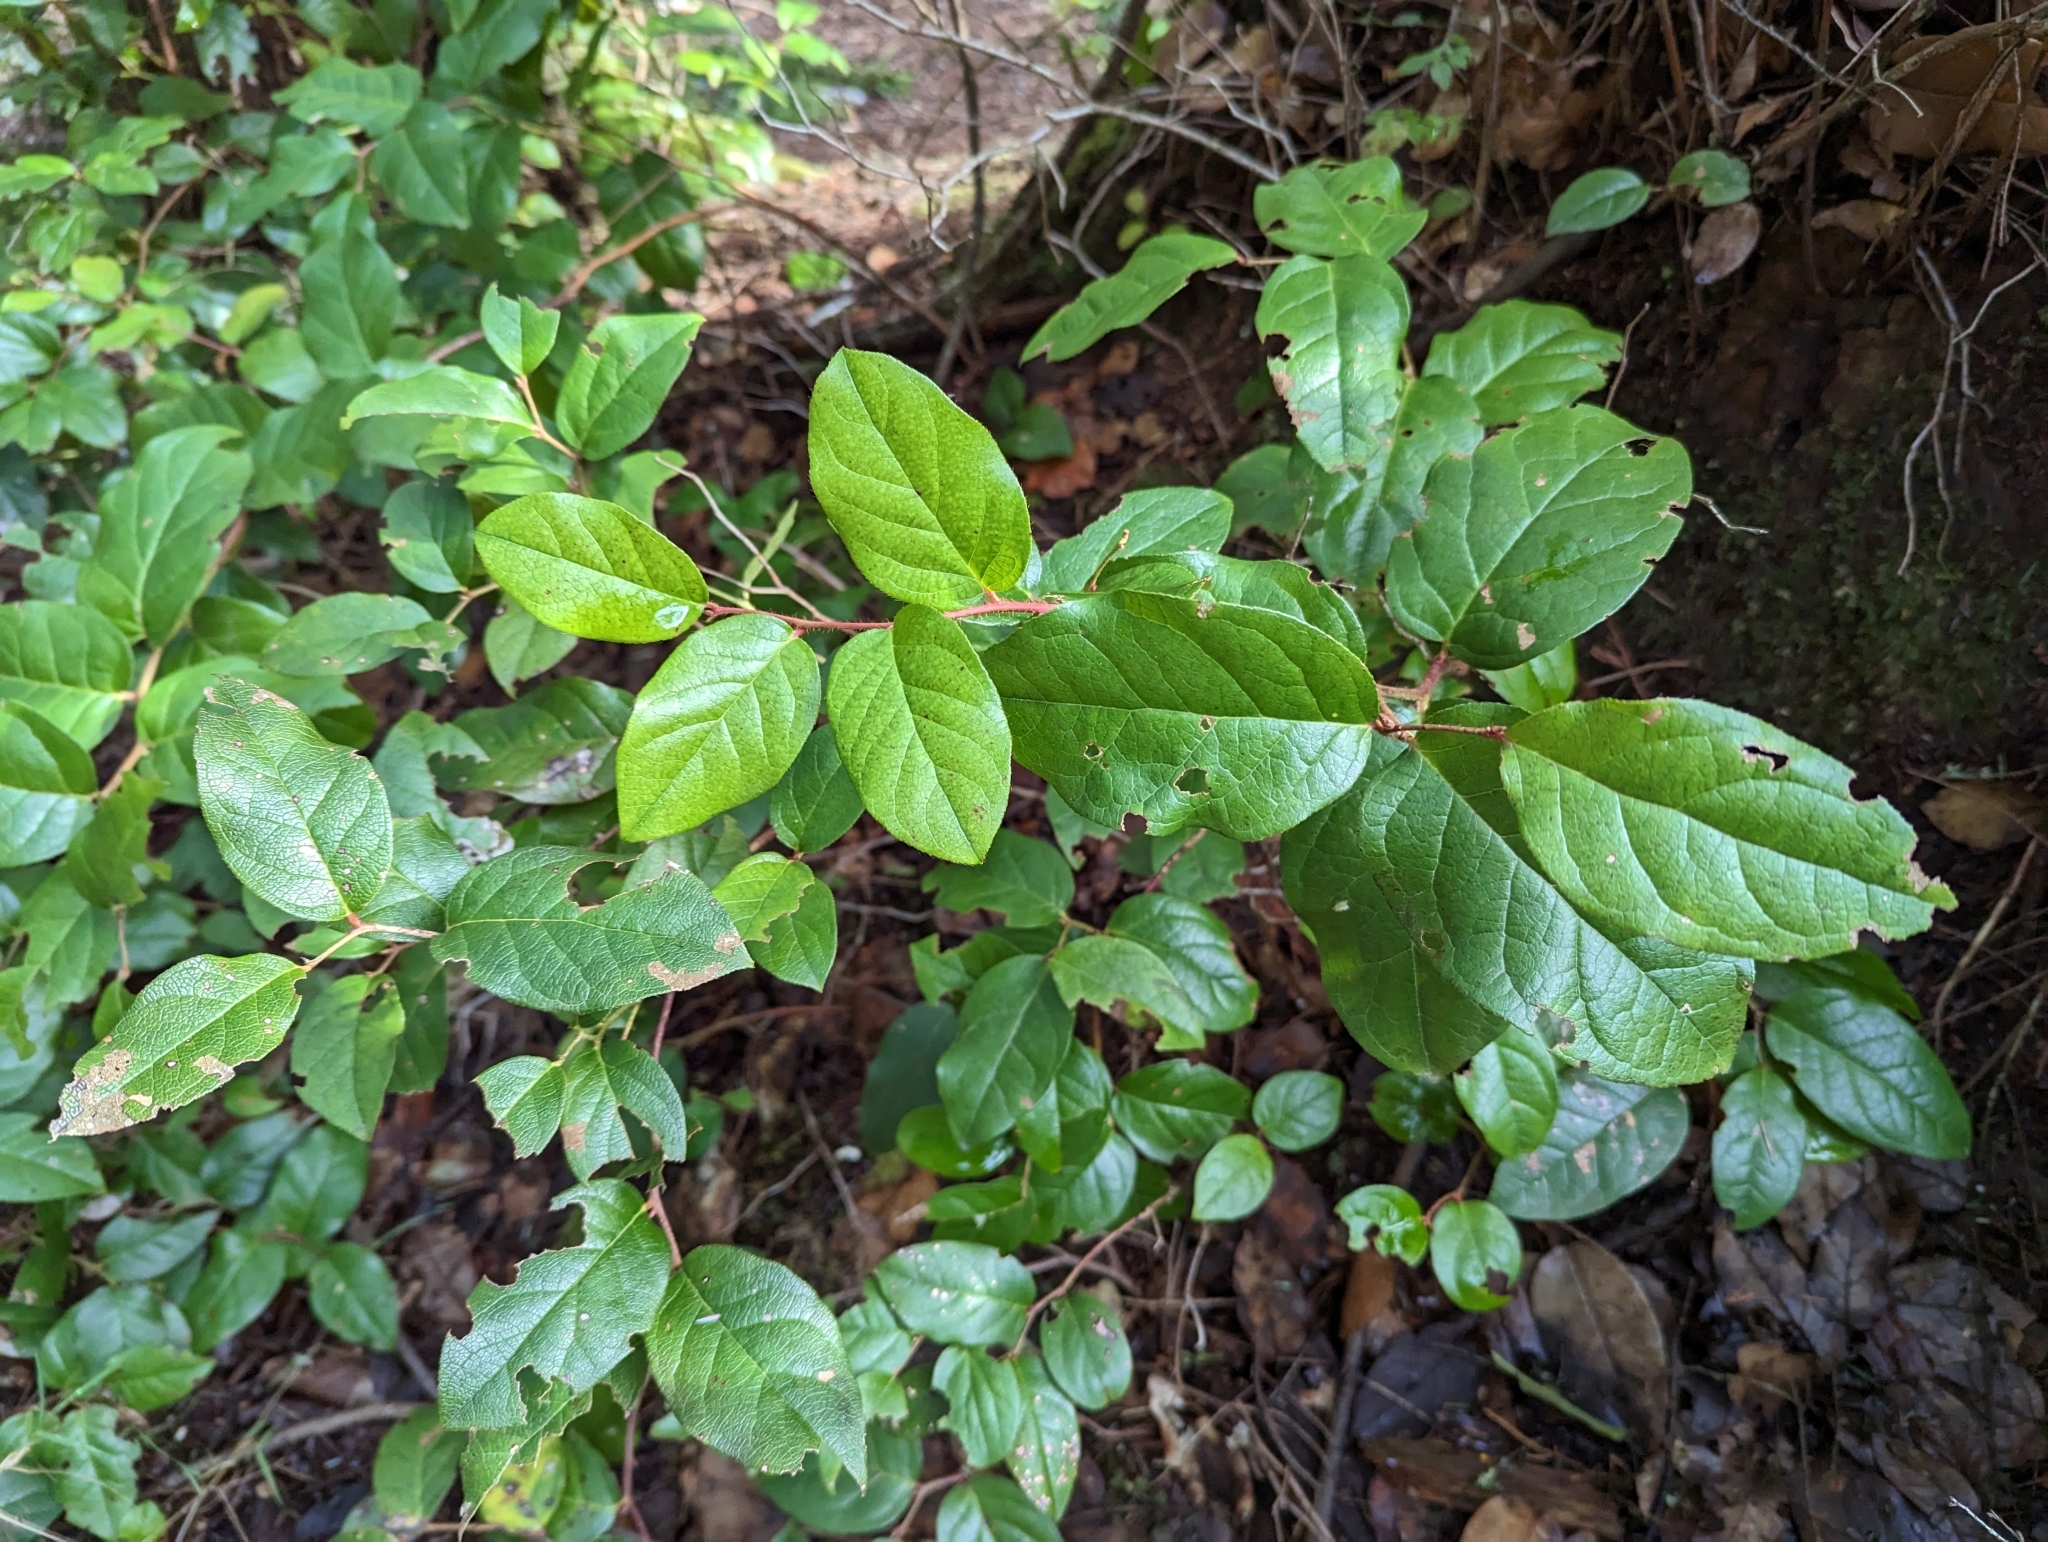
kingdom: Plantae
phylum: Tracheophyta
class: Magnoliopsida
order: Ericales
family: Ericaceae
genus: Gaultheria
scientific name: Gaultheria shallon
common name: Shallon
